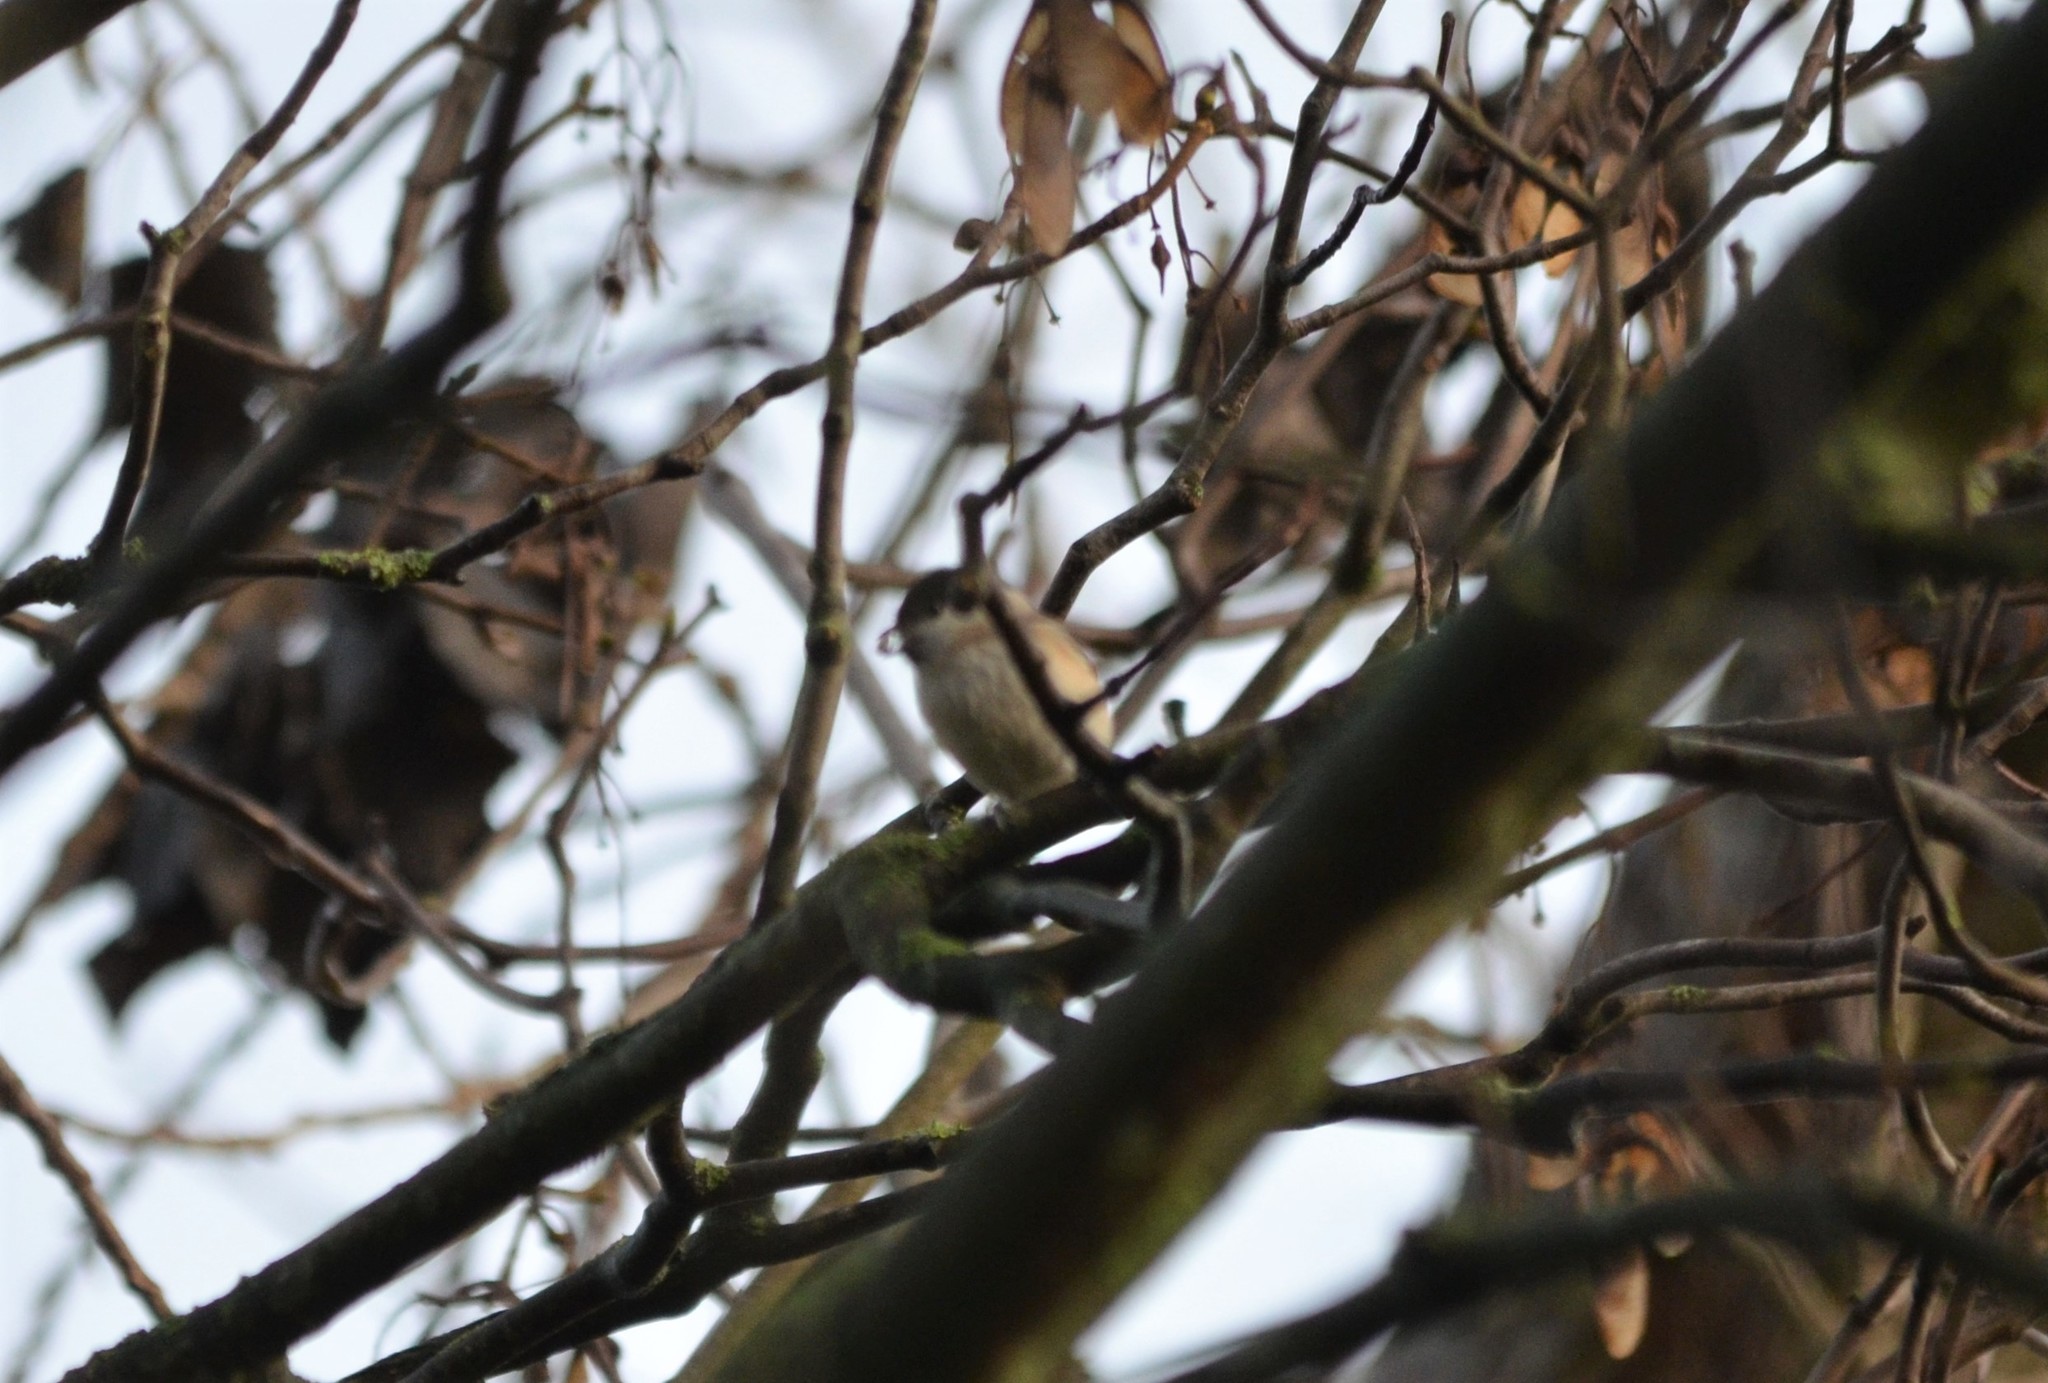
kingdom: Animalia
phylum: Chordata
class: Aves
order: Passeriformes
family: Paridae
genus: Poecile
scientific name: Poecile palustris
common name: Marsh tit
